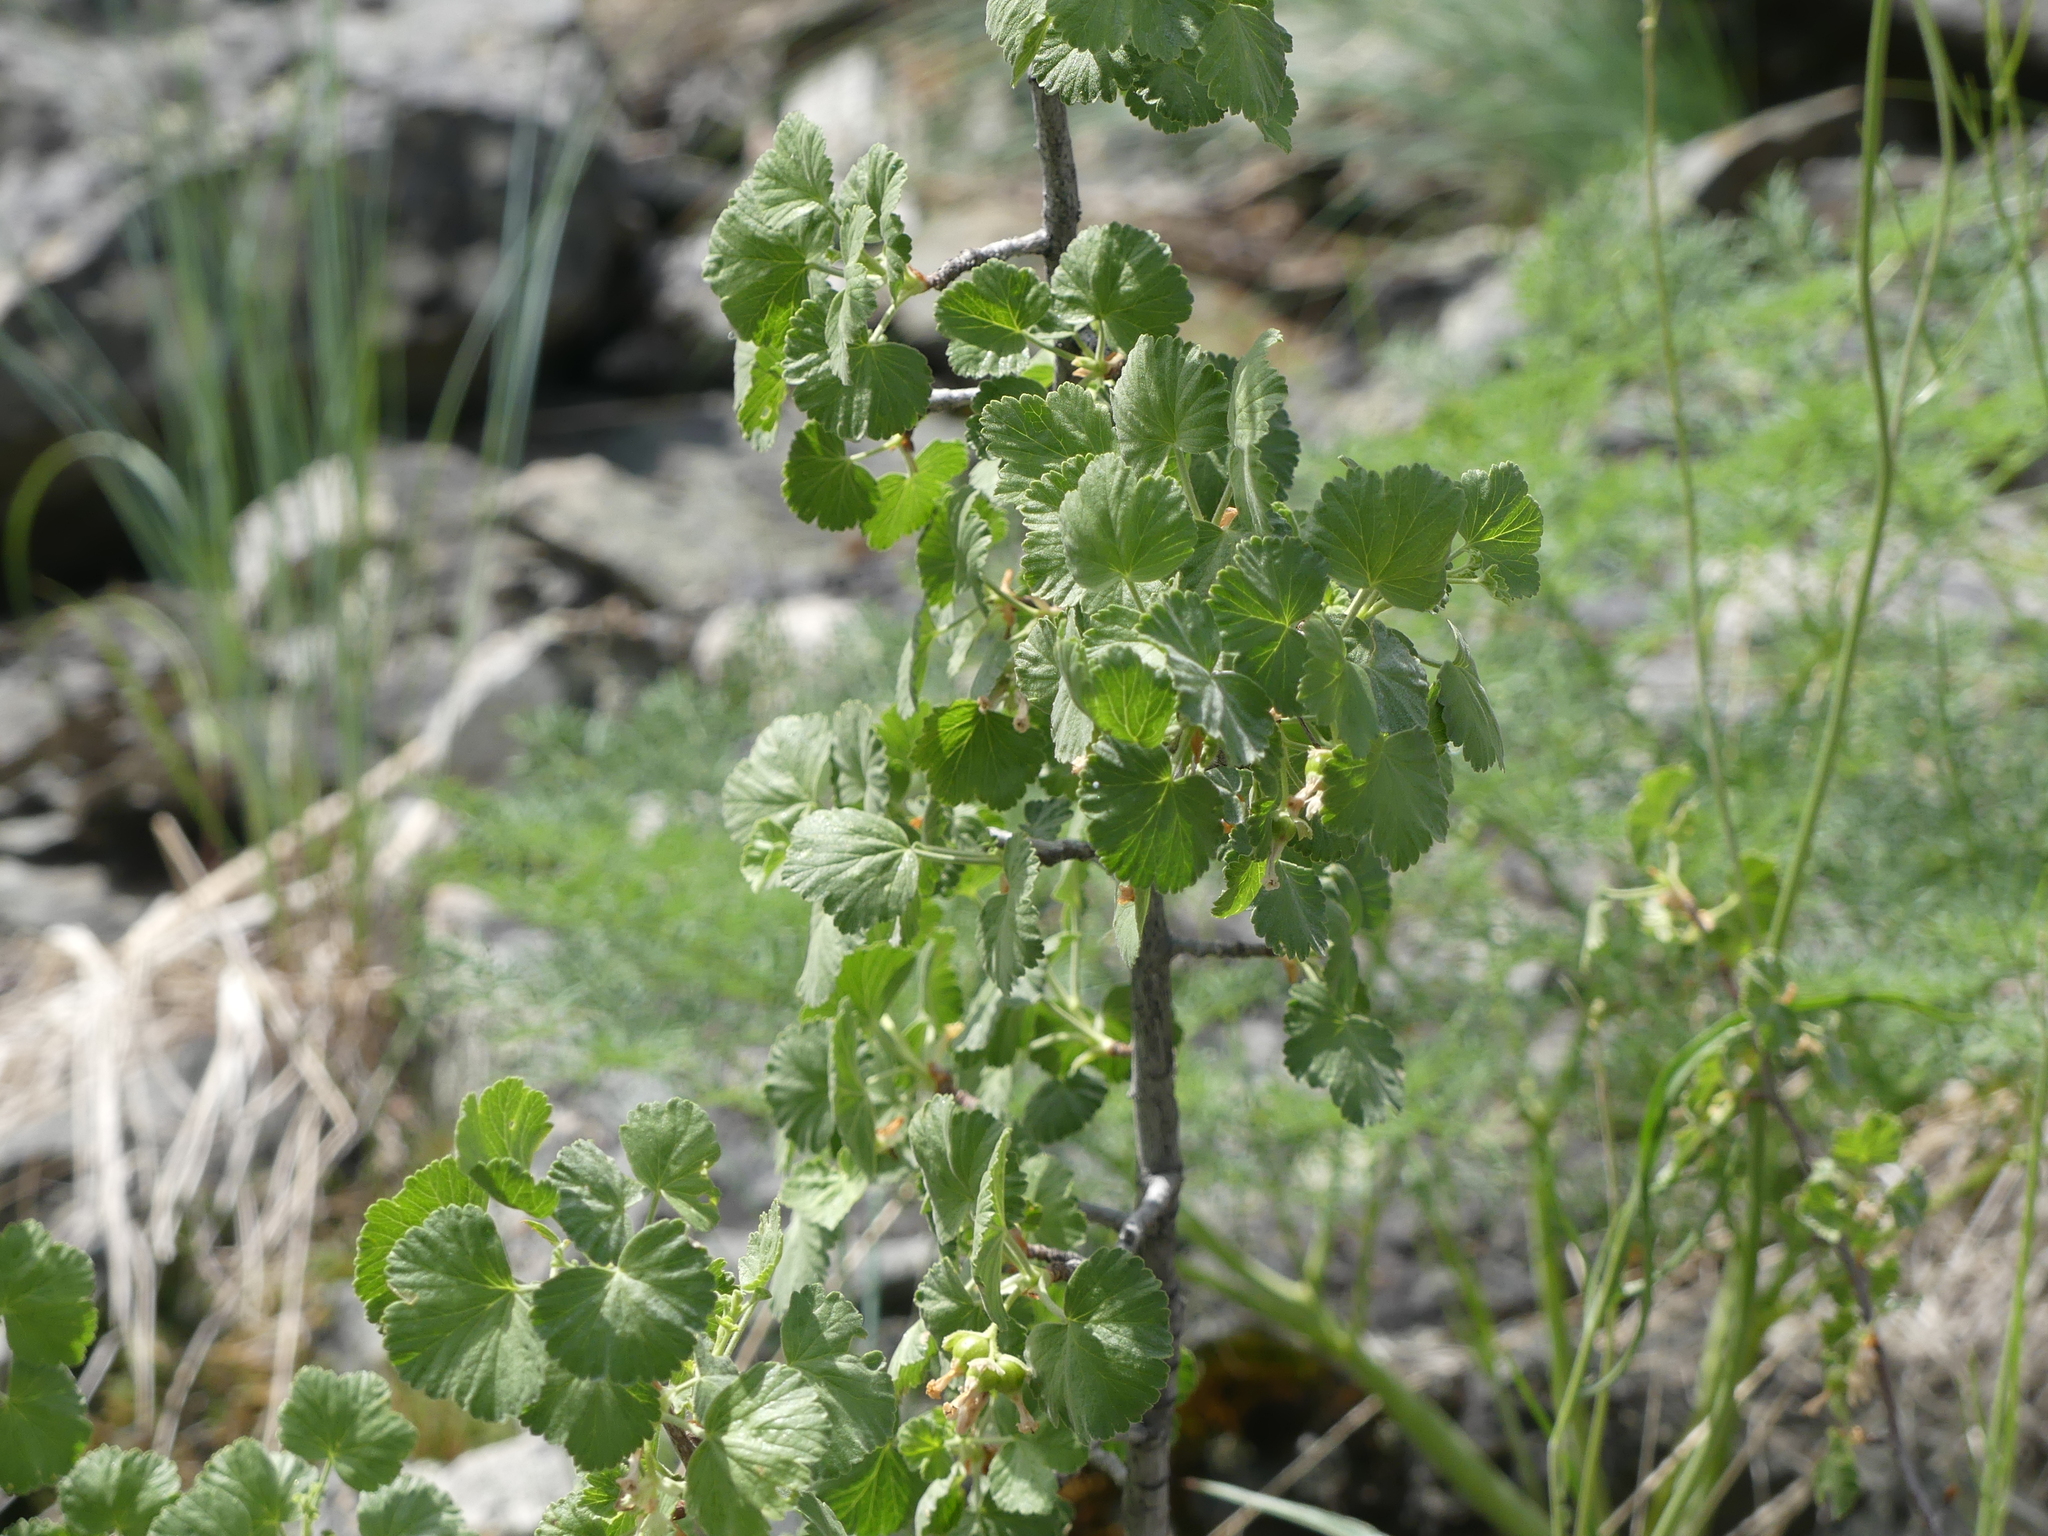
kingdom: Plantae
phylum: Tracheophyta
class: Magnoliopsida
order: Saxifragales
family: Grossulariaceae
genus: Ribes
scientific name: Ribes cereum
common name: Wax currant
